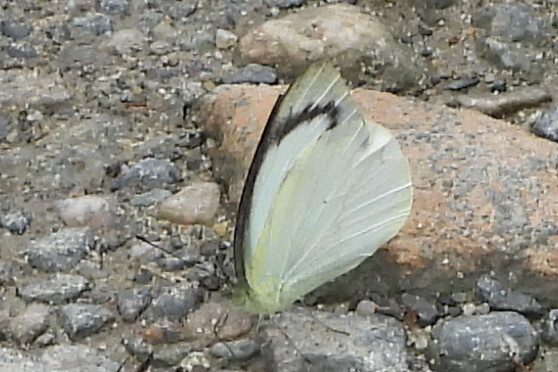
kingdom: Animalia
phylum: Arthropoda
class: Insecta
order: Lepidoptera
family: Pieridae
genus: Appias
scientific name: Appias indra
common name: Plain puffin
